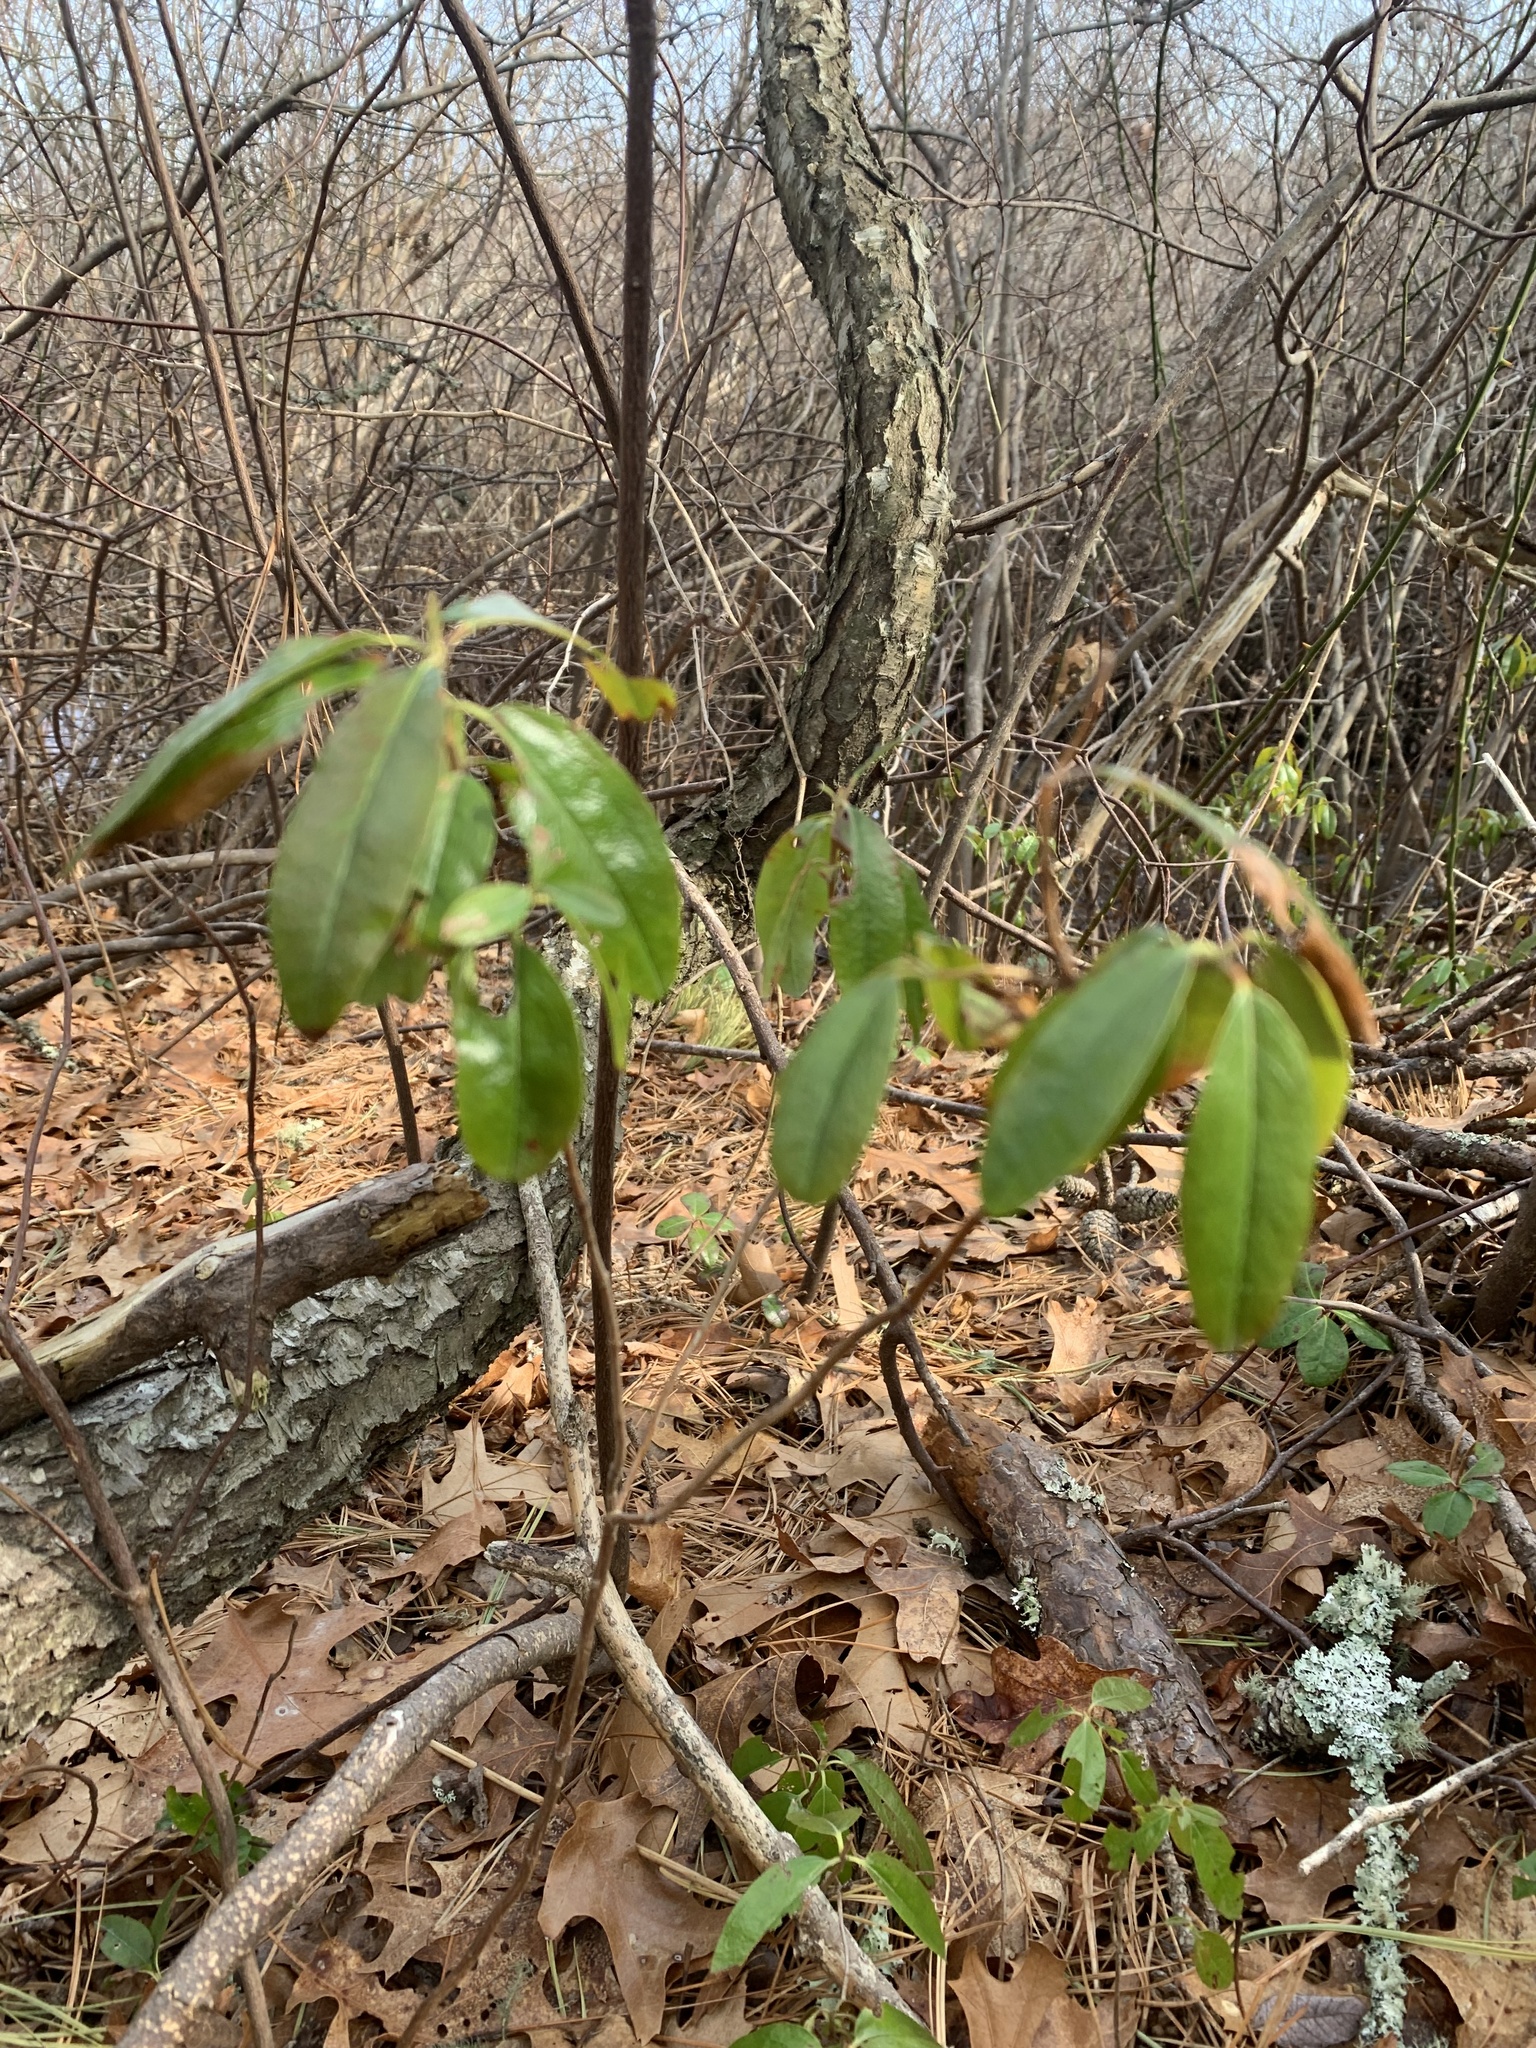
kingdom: Plantae
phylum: Tracheophyta
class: Magnoliopsida
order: Ericales
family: Ericaceae
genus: Kalmia
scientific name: Kalmia angustifolia
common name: Sheep-laurel
